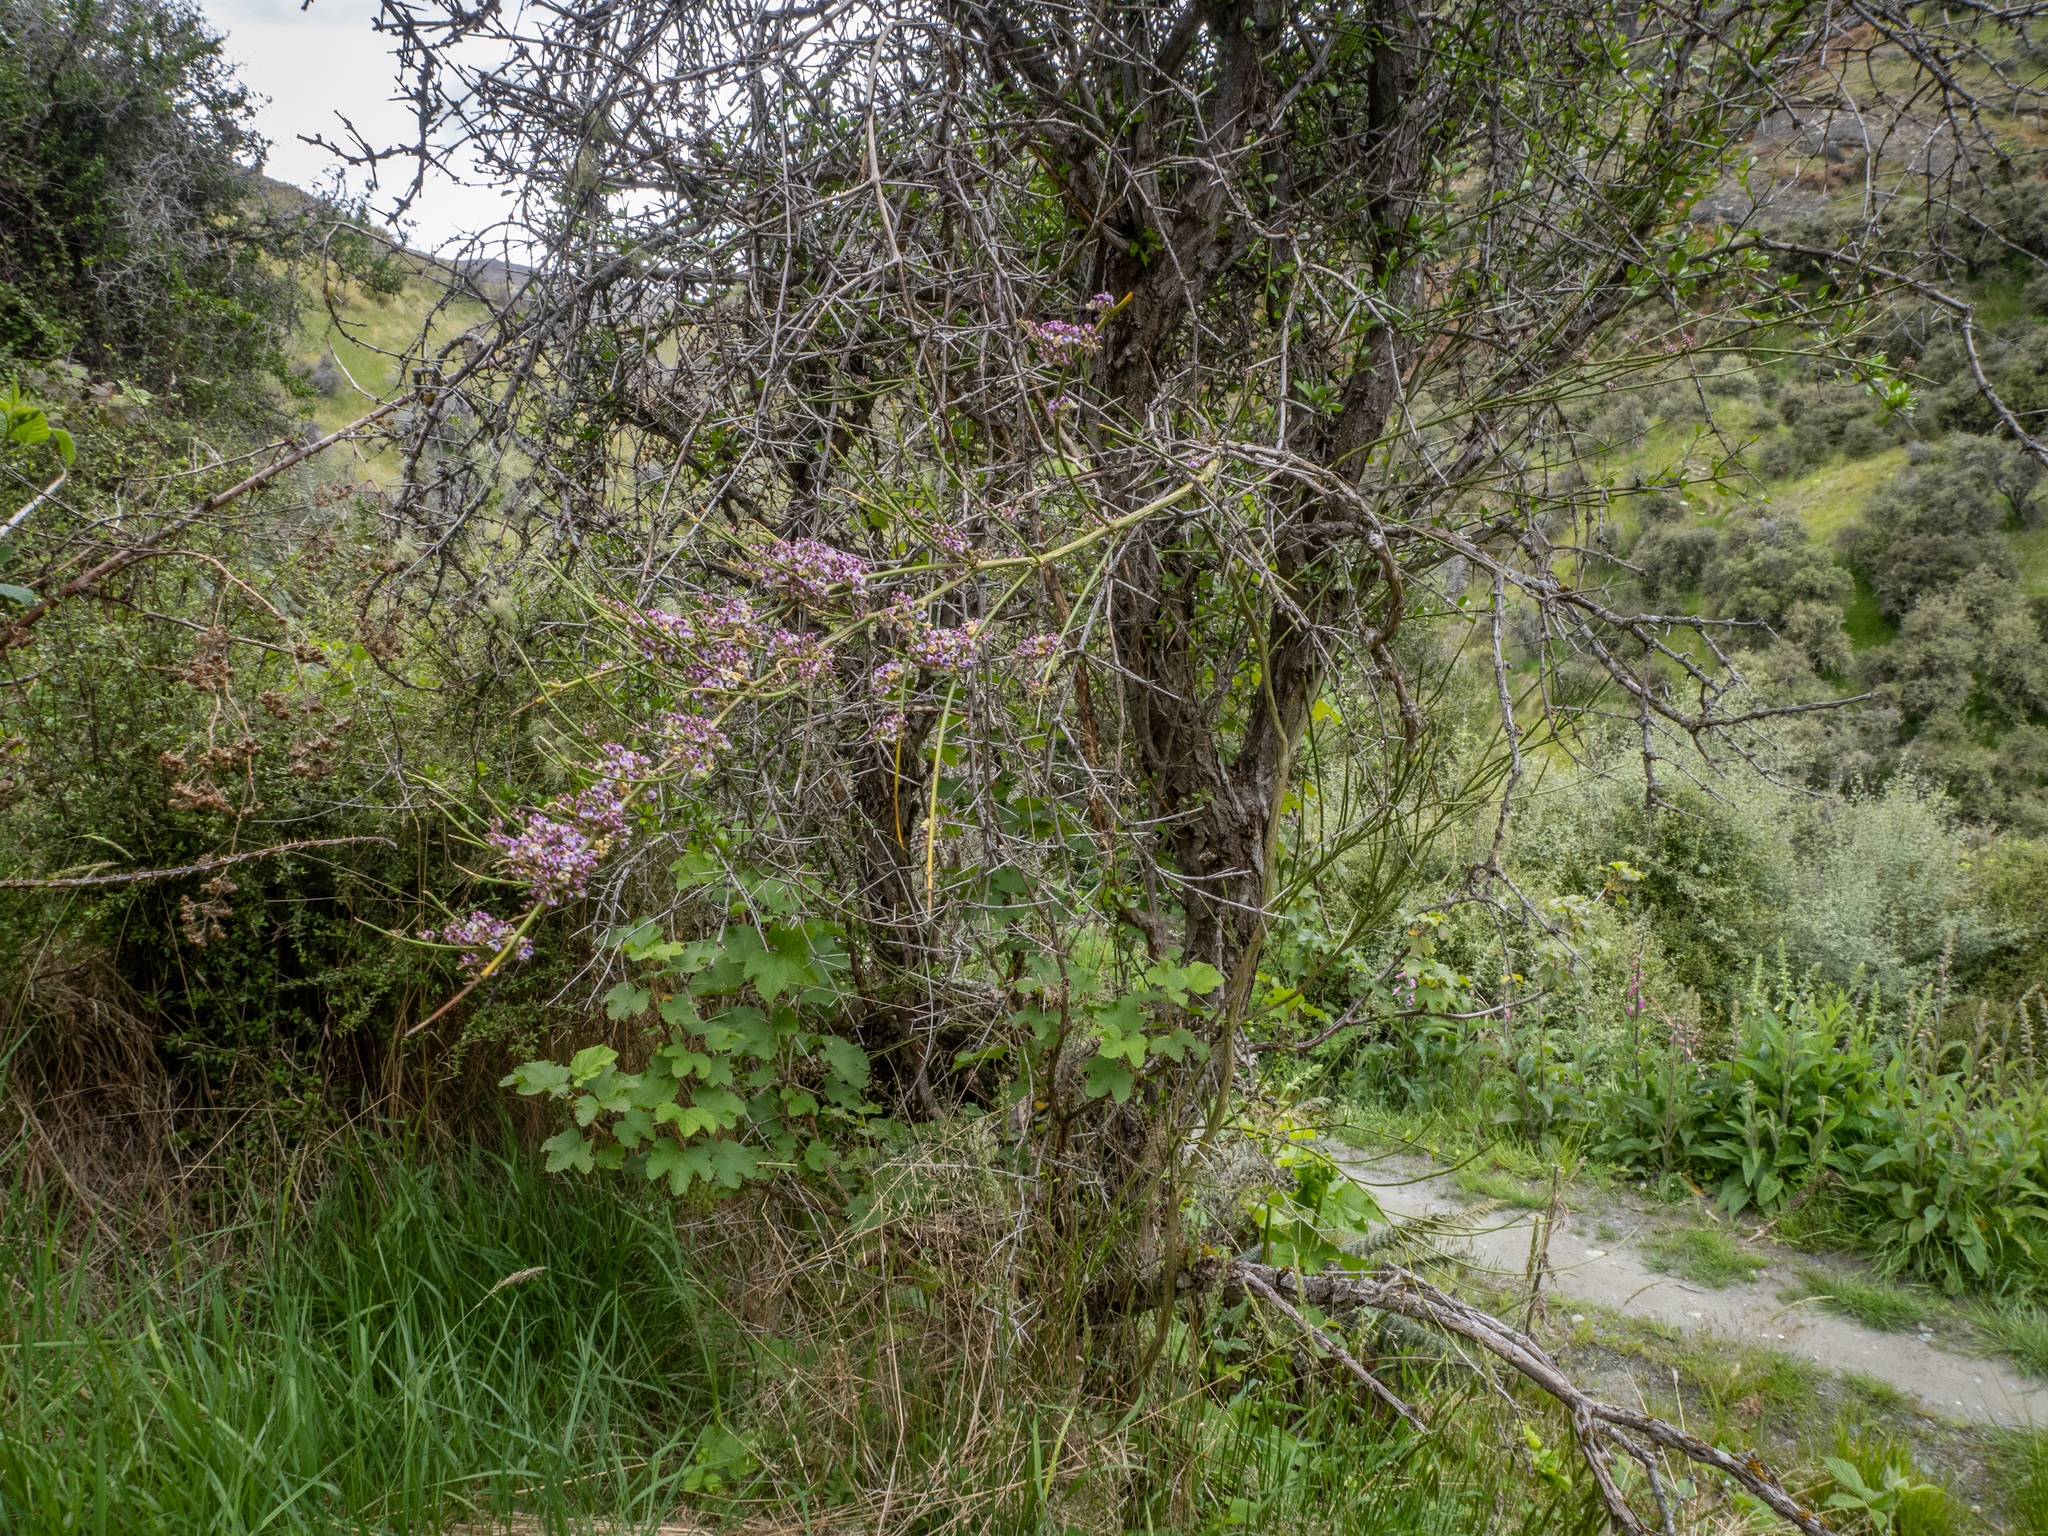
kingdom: Plantae
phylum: Tracheophyta
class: Magnoliopsida
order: Fabales
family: Fabaceae
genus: Carmichaelia
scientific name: Carmichaelia petriei
